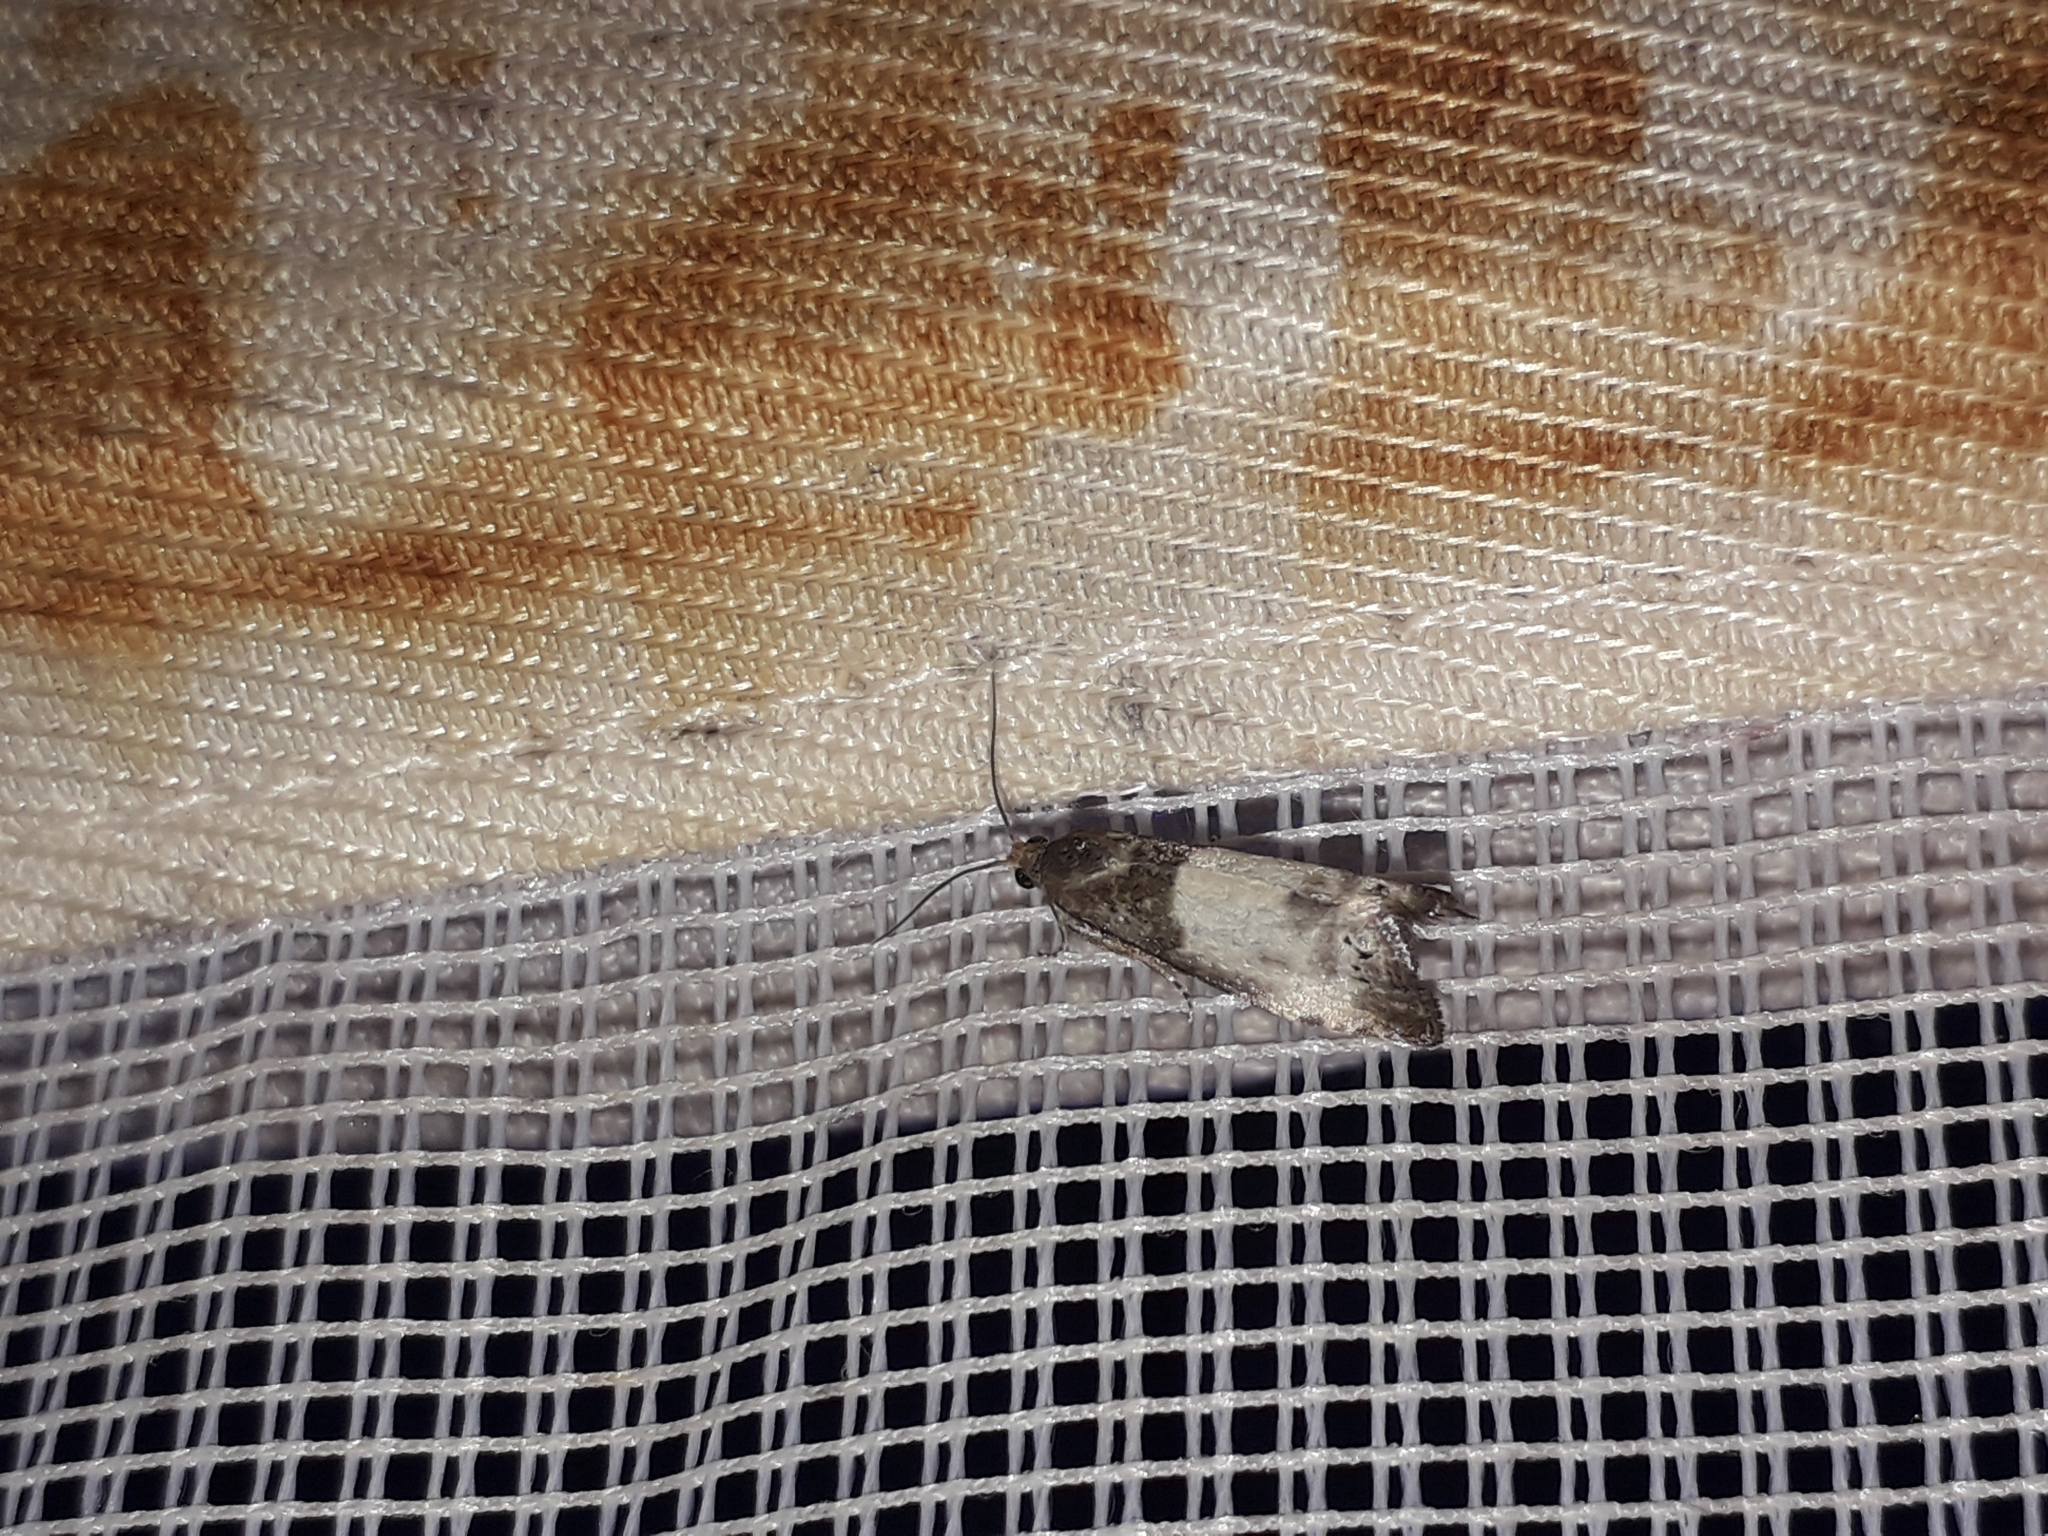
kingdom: Animalia
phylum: Arthropoda
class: Insecta
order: Lepidoptera
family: Tortricidae
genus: Notocelia
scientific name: Notocelia cynosbatella
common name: Yellow-faced bell moth
